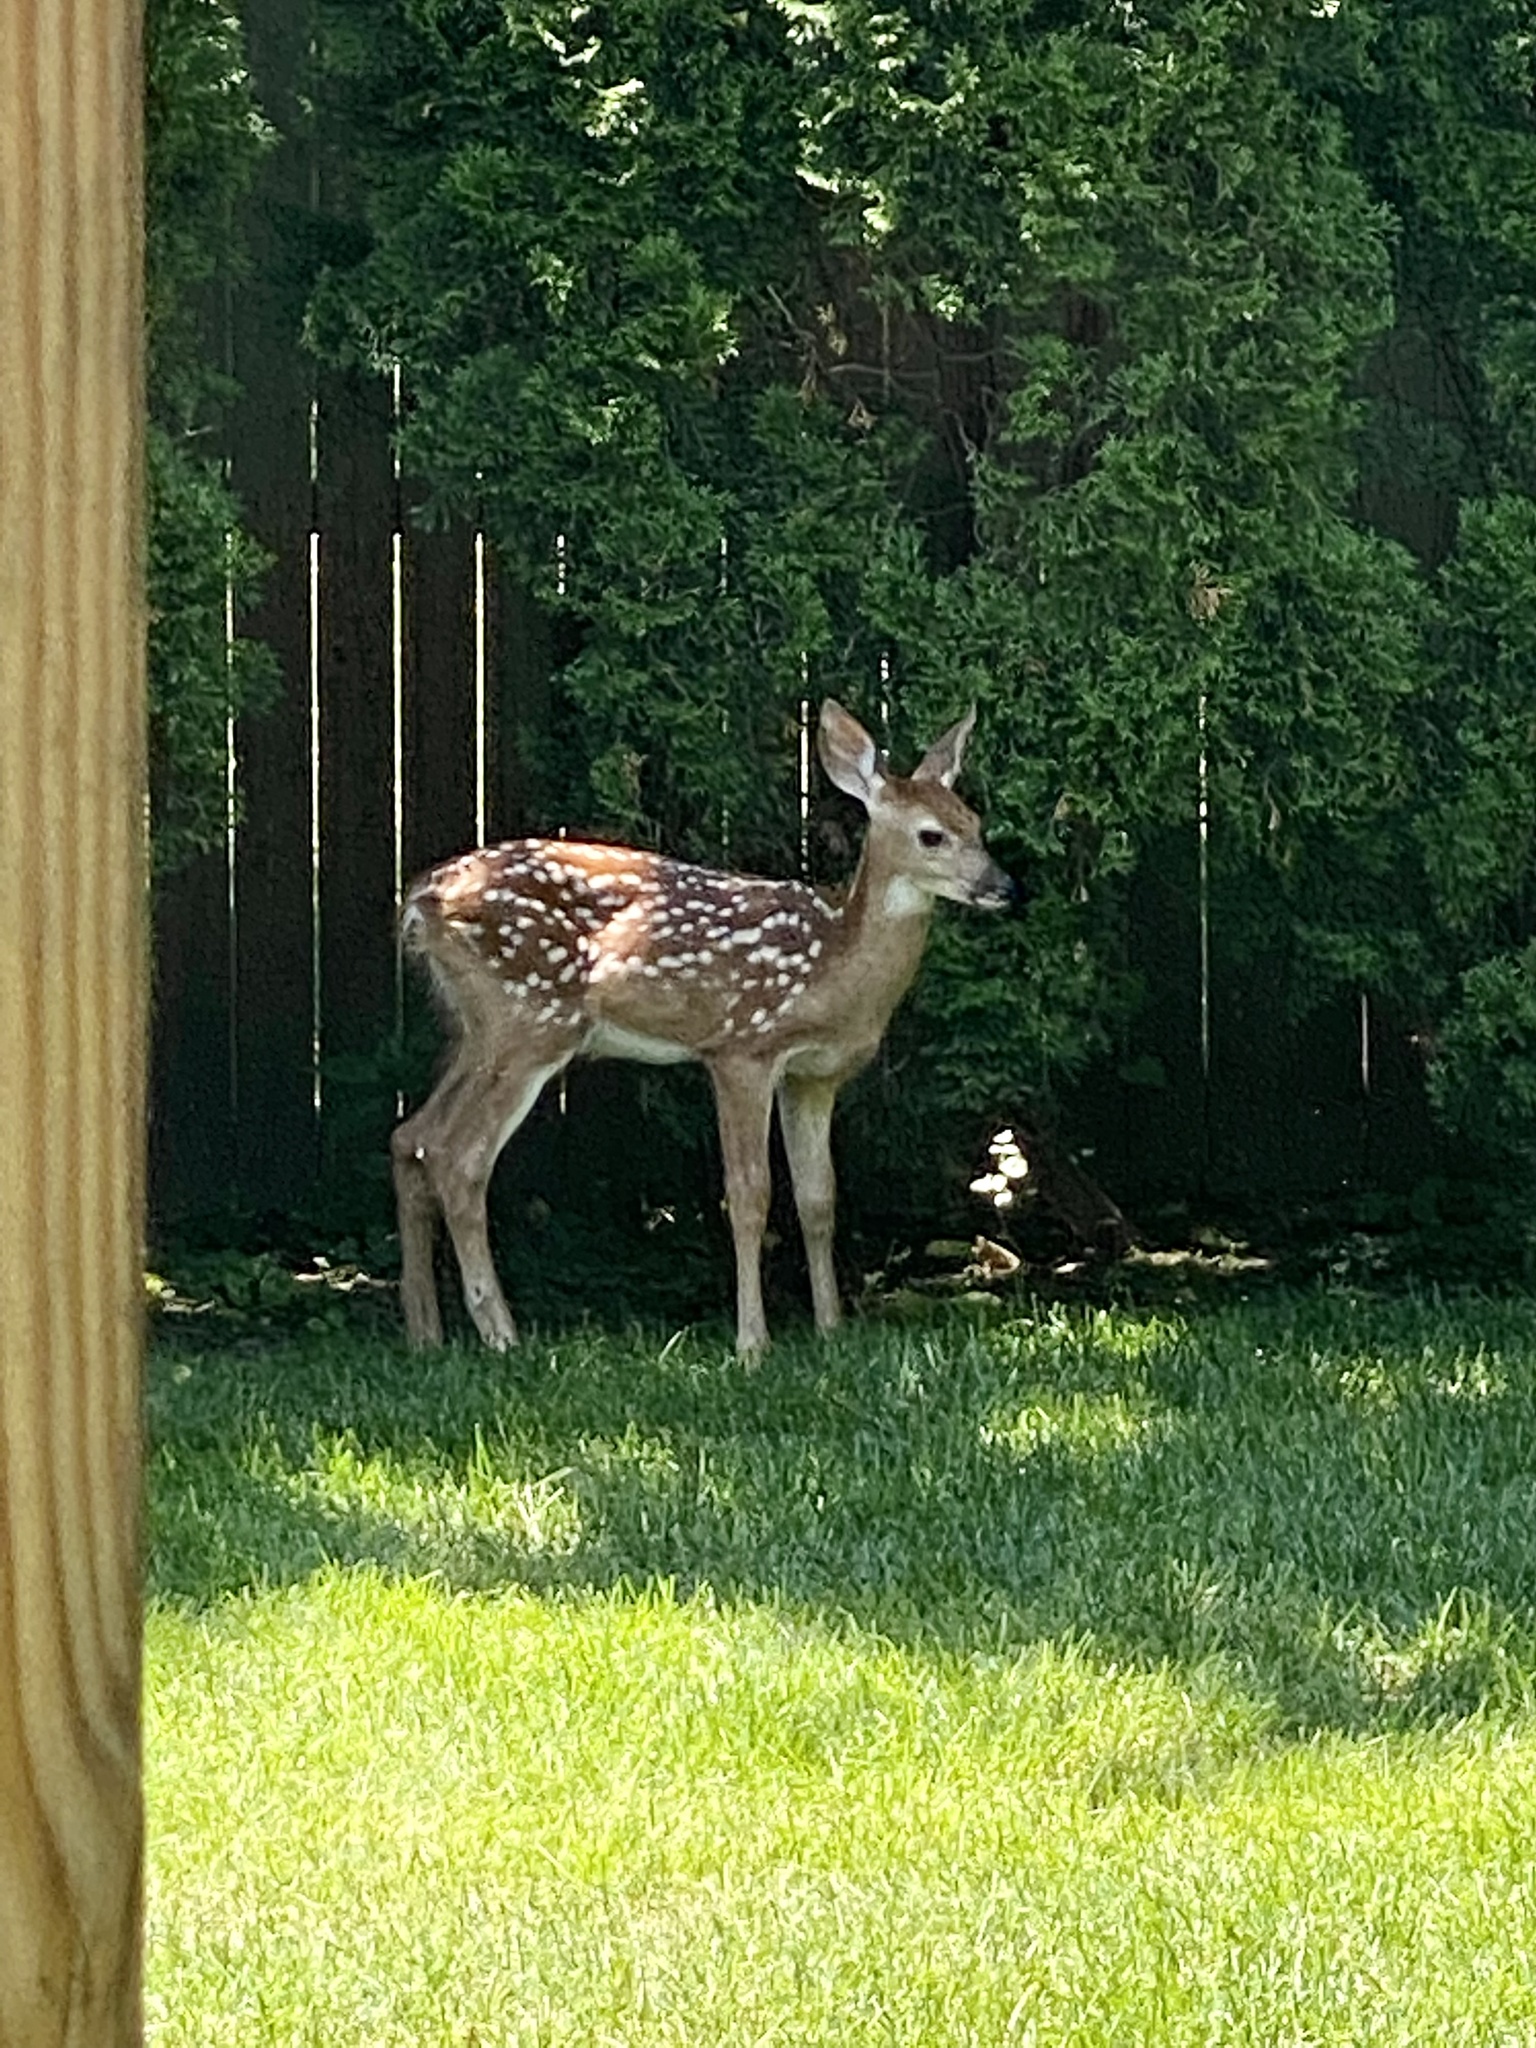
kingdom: Animalia
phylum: Chordata
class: Mammalia
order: Artiodactyla
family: Cervidae
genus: Odocoileus
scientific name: Odocoileus virginianus
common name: White-tailed deer
